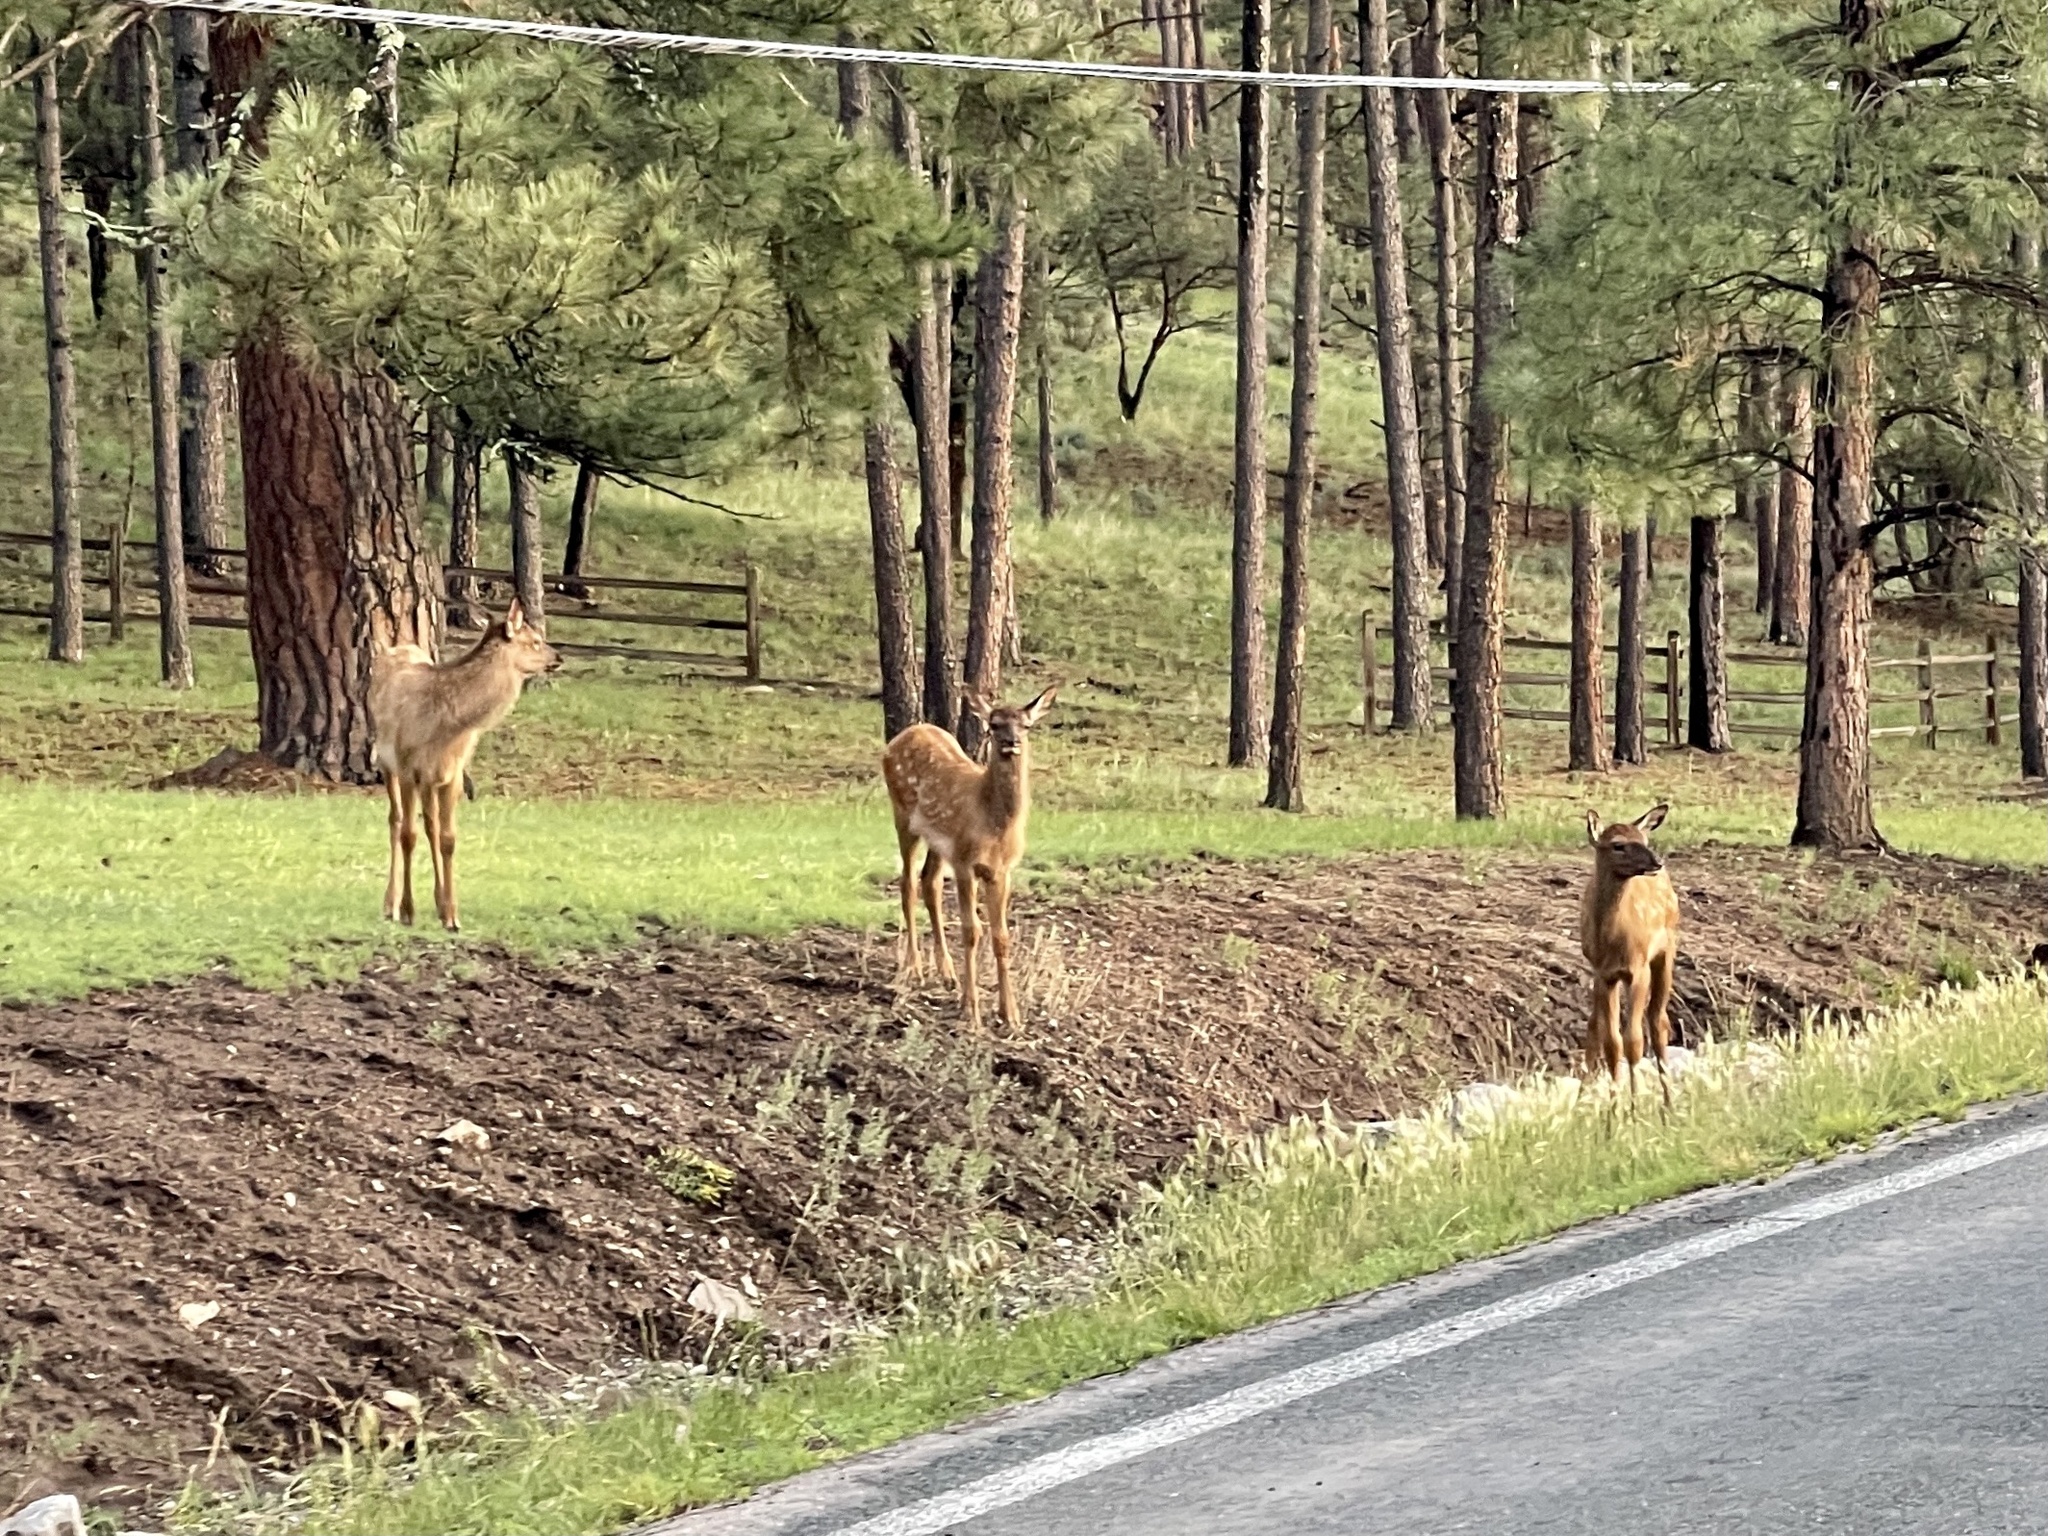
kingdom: Animalia
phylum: Chordata
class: Mammalia
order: Artiodactyla
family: Cervidae
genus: Cervus
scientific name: Cervus elaphus
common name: Red deer
